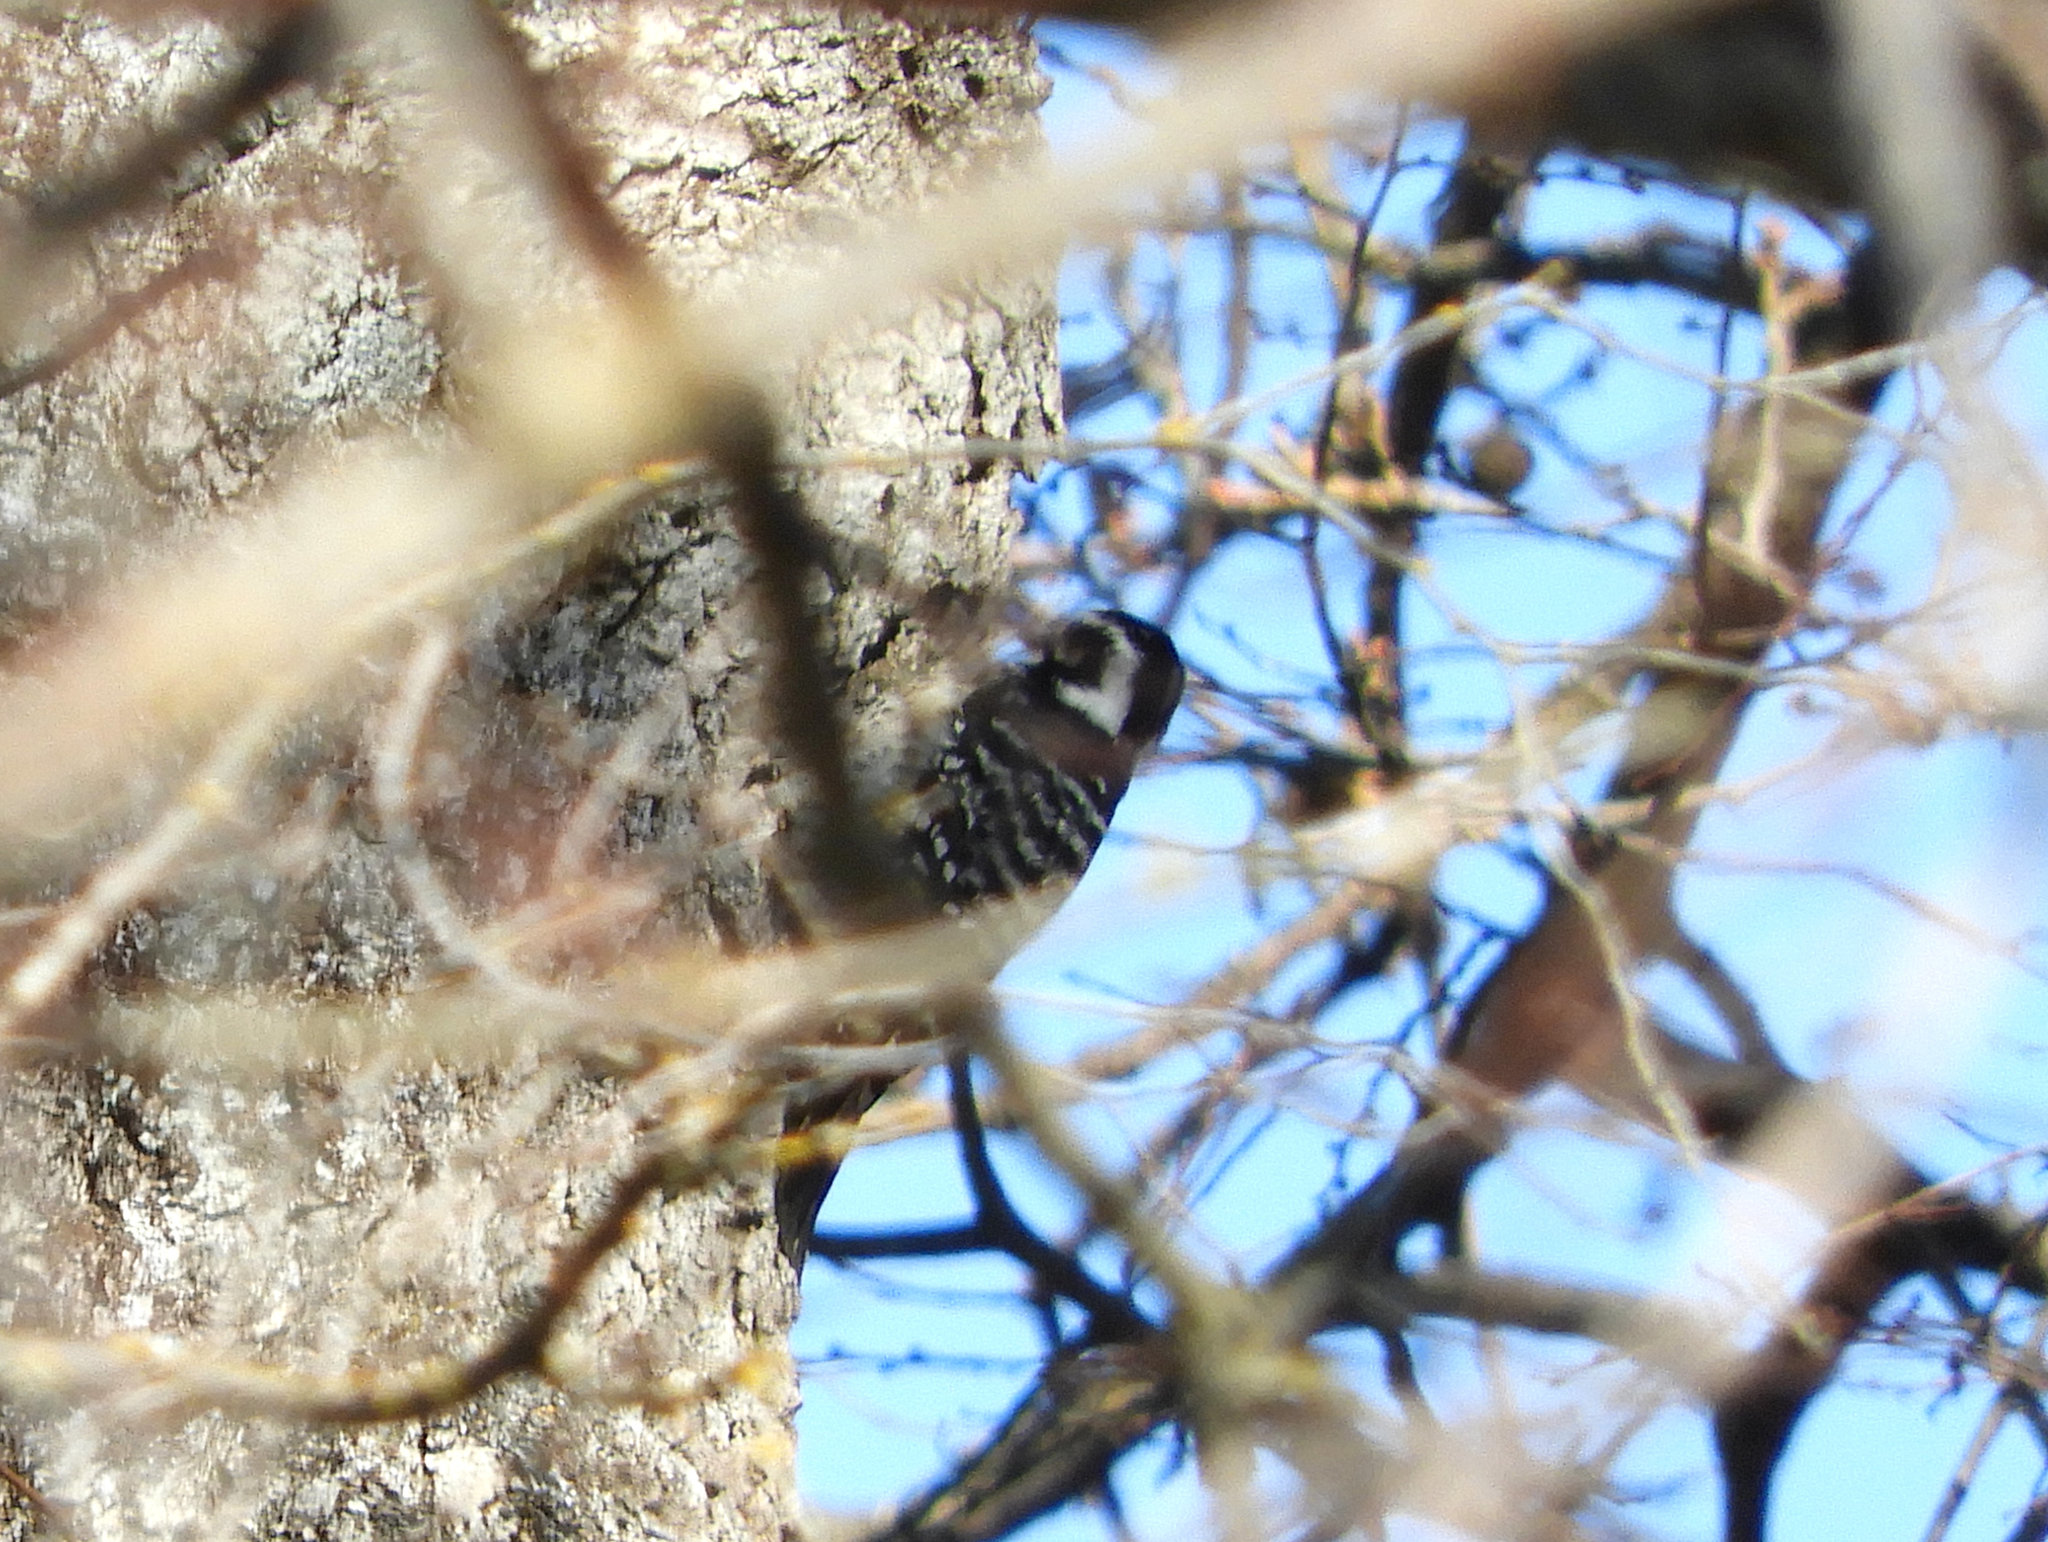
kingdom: Animalia
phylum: Chordata
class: Aves
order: Piciformes
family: Picidae
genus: Dryobates
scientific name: Dryobates nuttallii
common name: Nuttall's woodpecker
